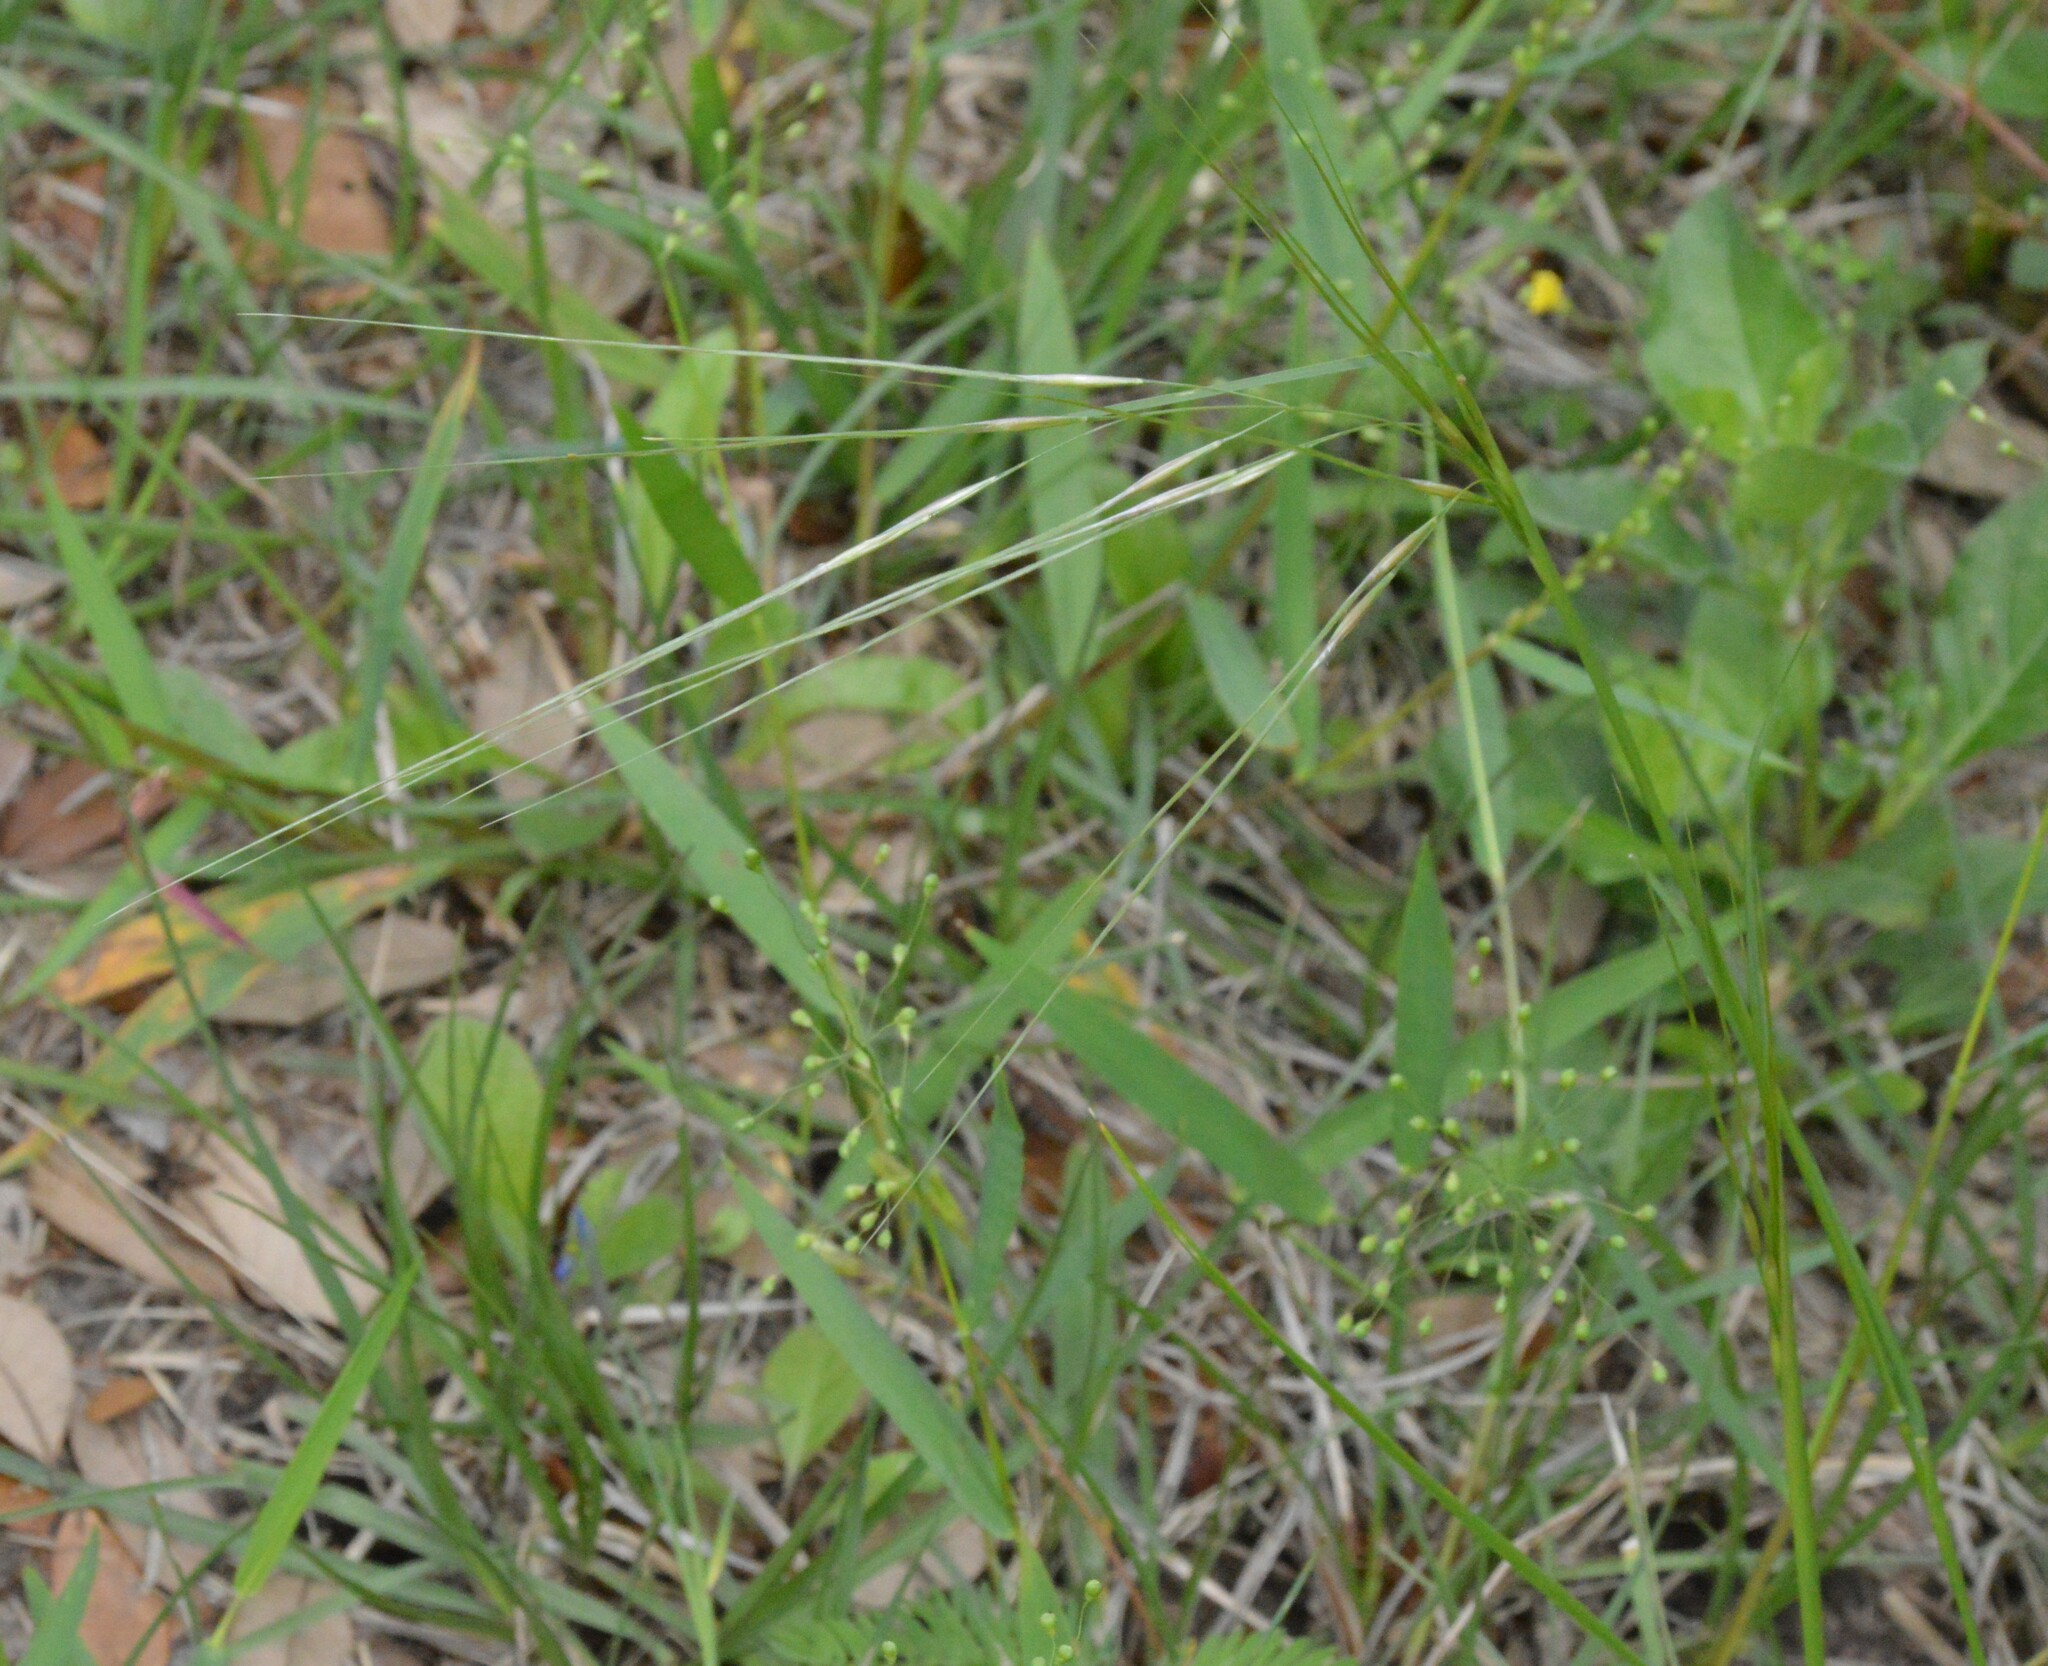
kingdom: Plantae
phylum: Tracheophyta
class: Liliopsida
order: Poales
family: Poaceae
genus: Nassella
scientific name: Nassella leucotricha
